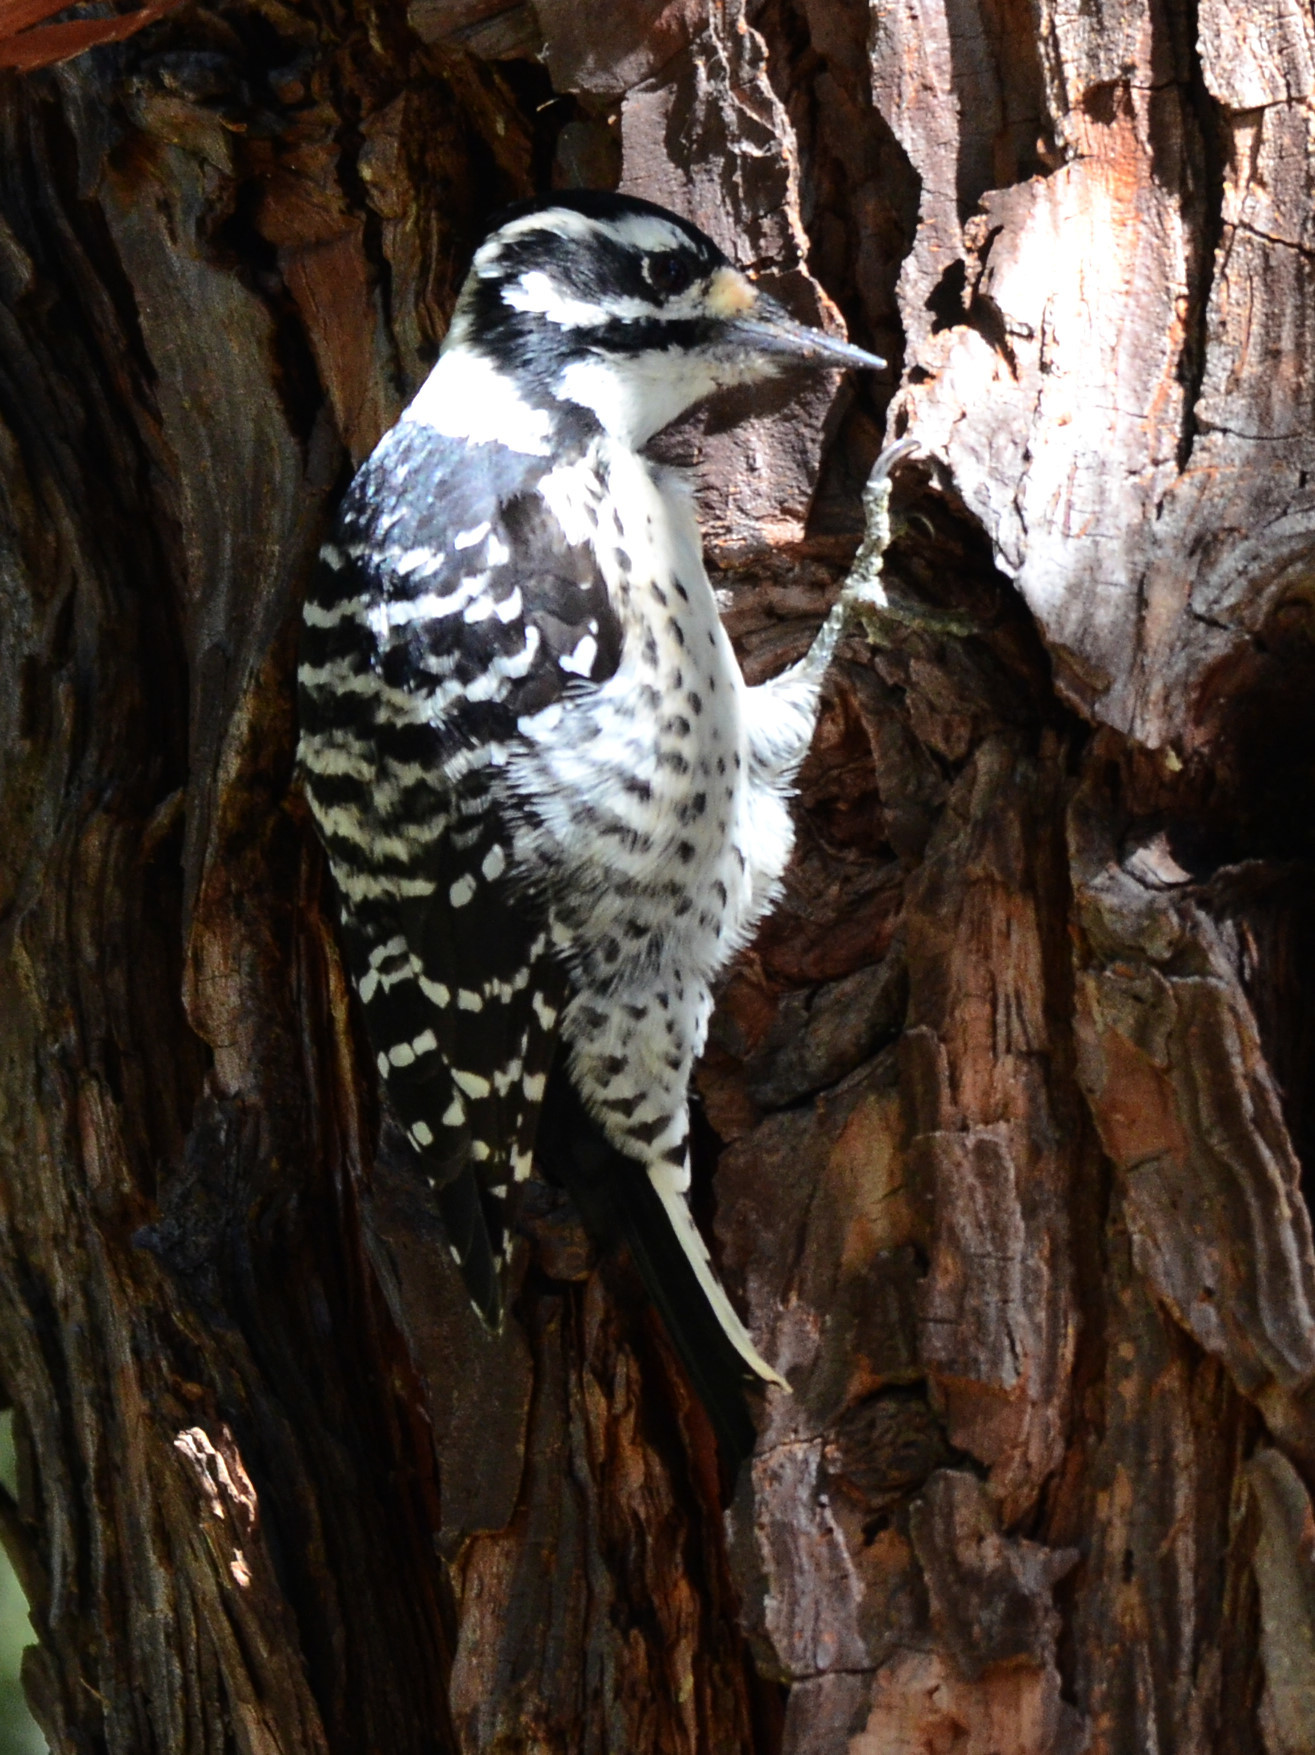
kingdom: Animalia
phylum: Chordata
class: Aves
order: Piciformes
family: Picidae
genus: Dryobates
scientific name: Dryobates nuttallii
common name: Nuttall's woodpecker
